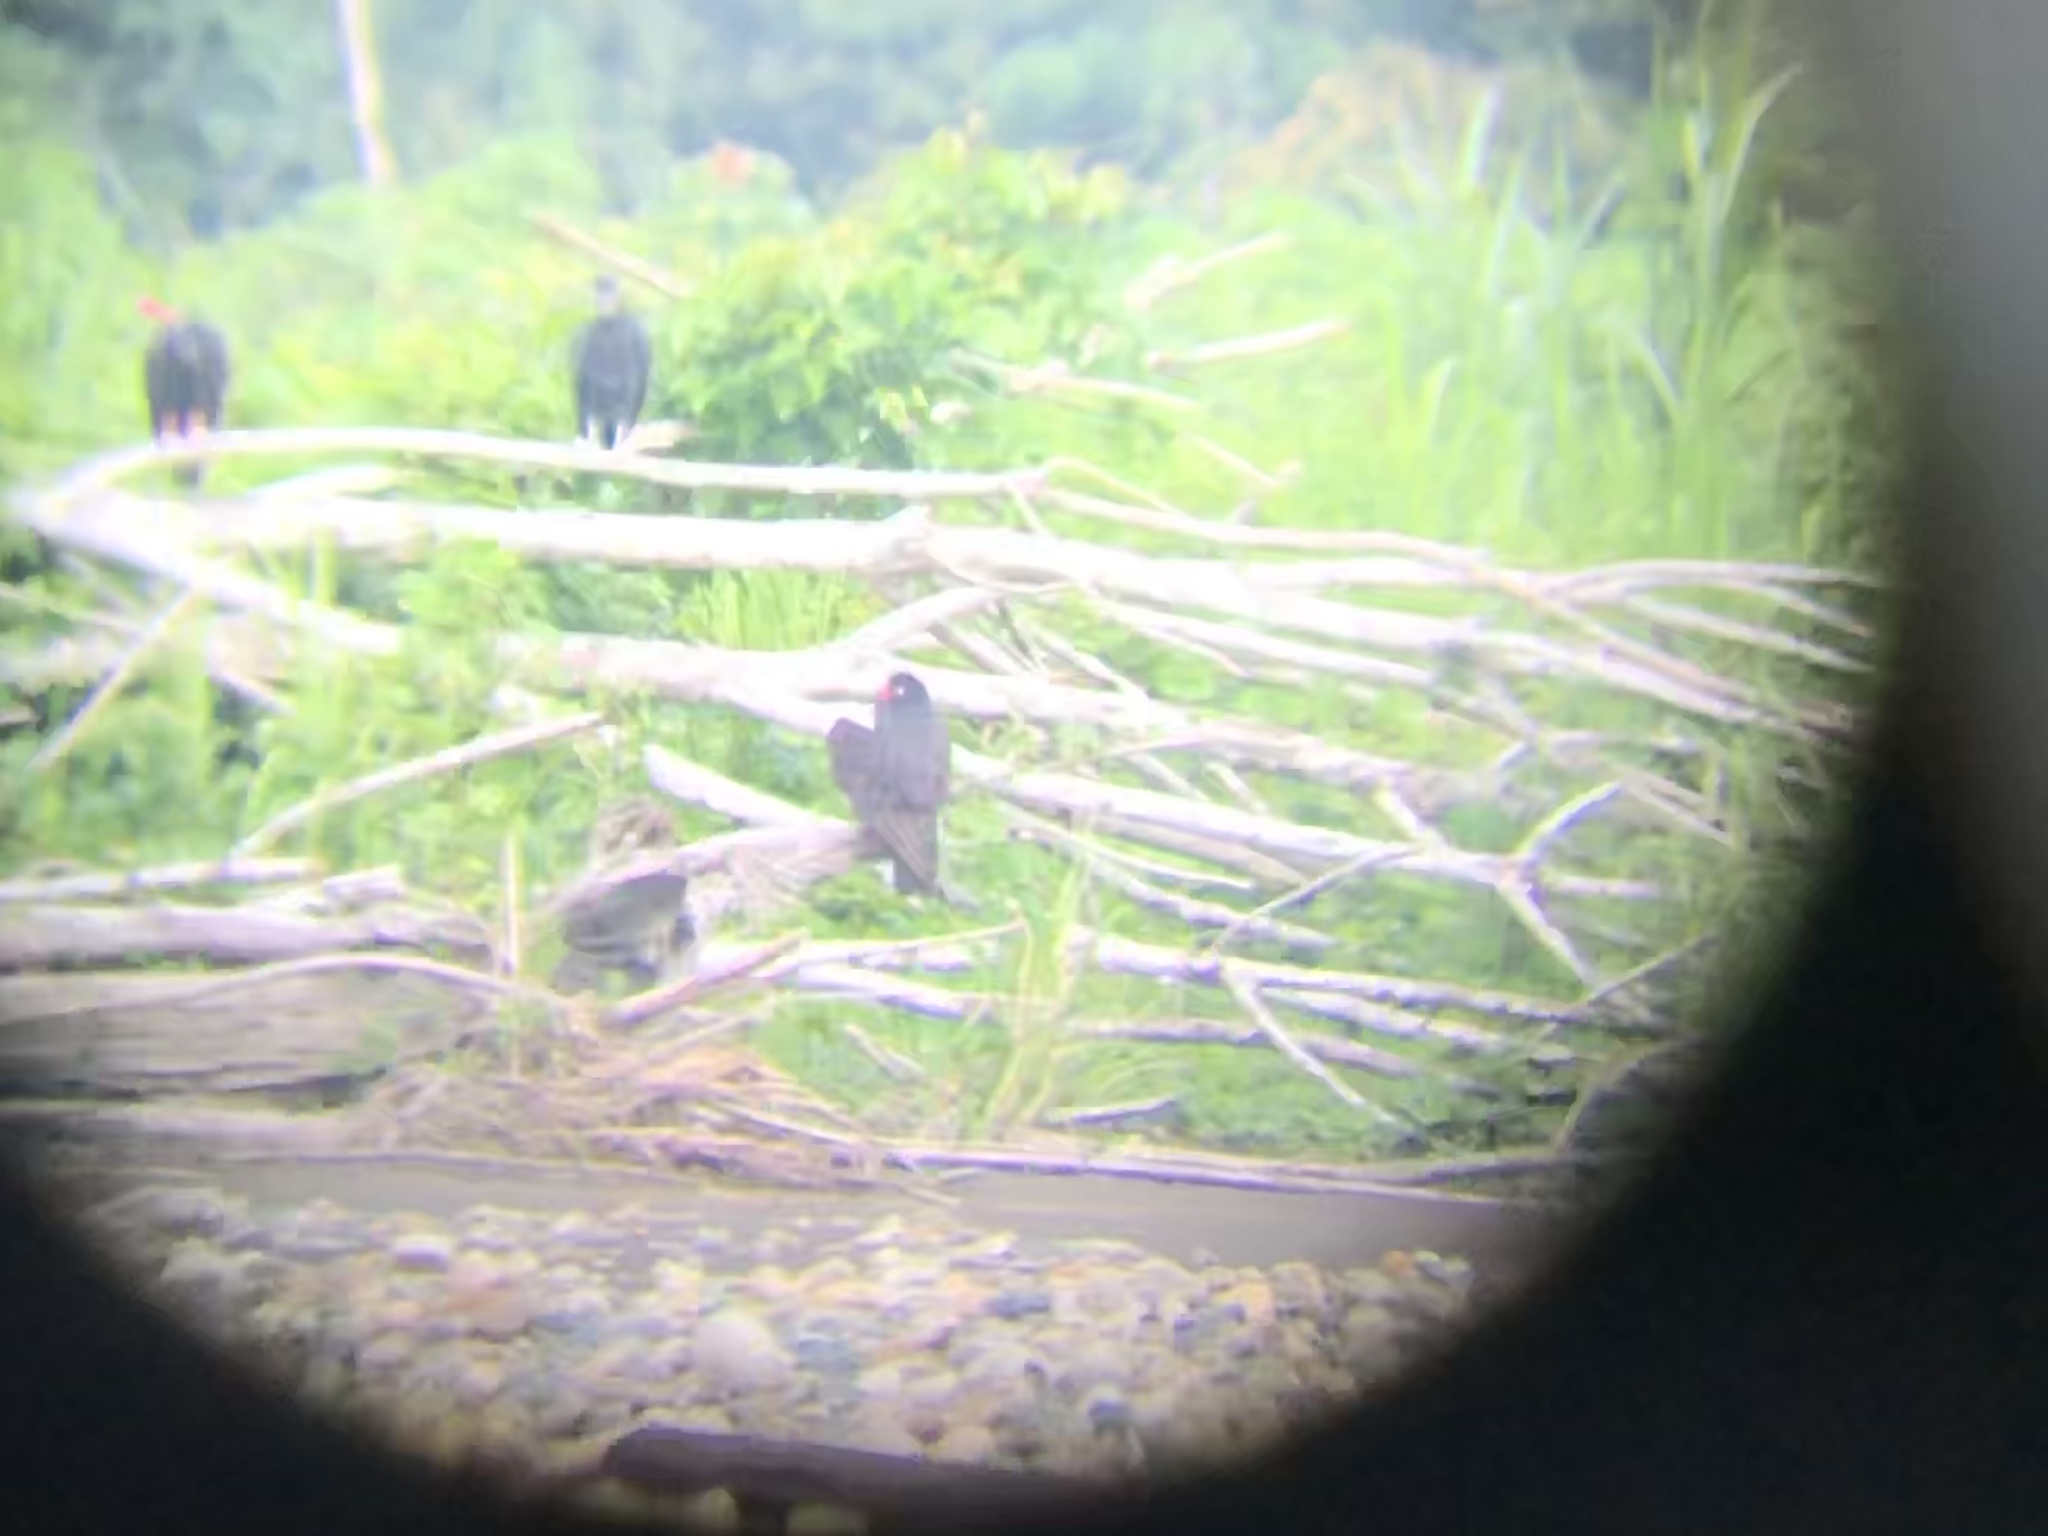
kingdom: Animalia
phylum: Chordata
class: Aves
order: Falconiformes
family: Falconidae
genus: Daptrius
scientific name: Daptrius ater
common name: Black caracara
